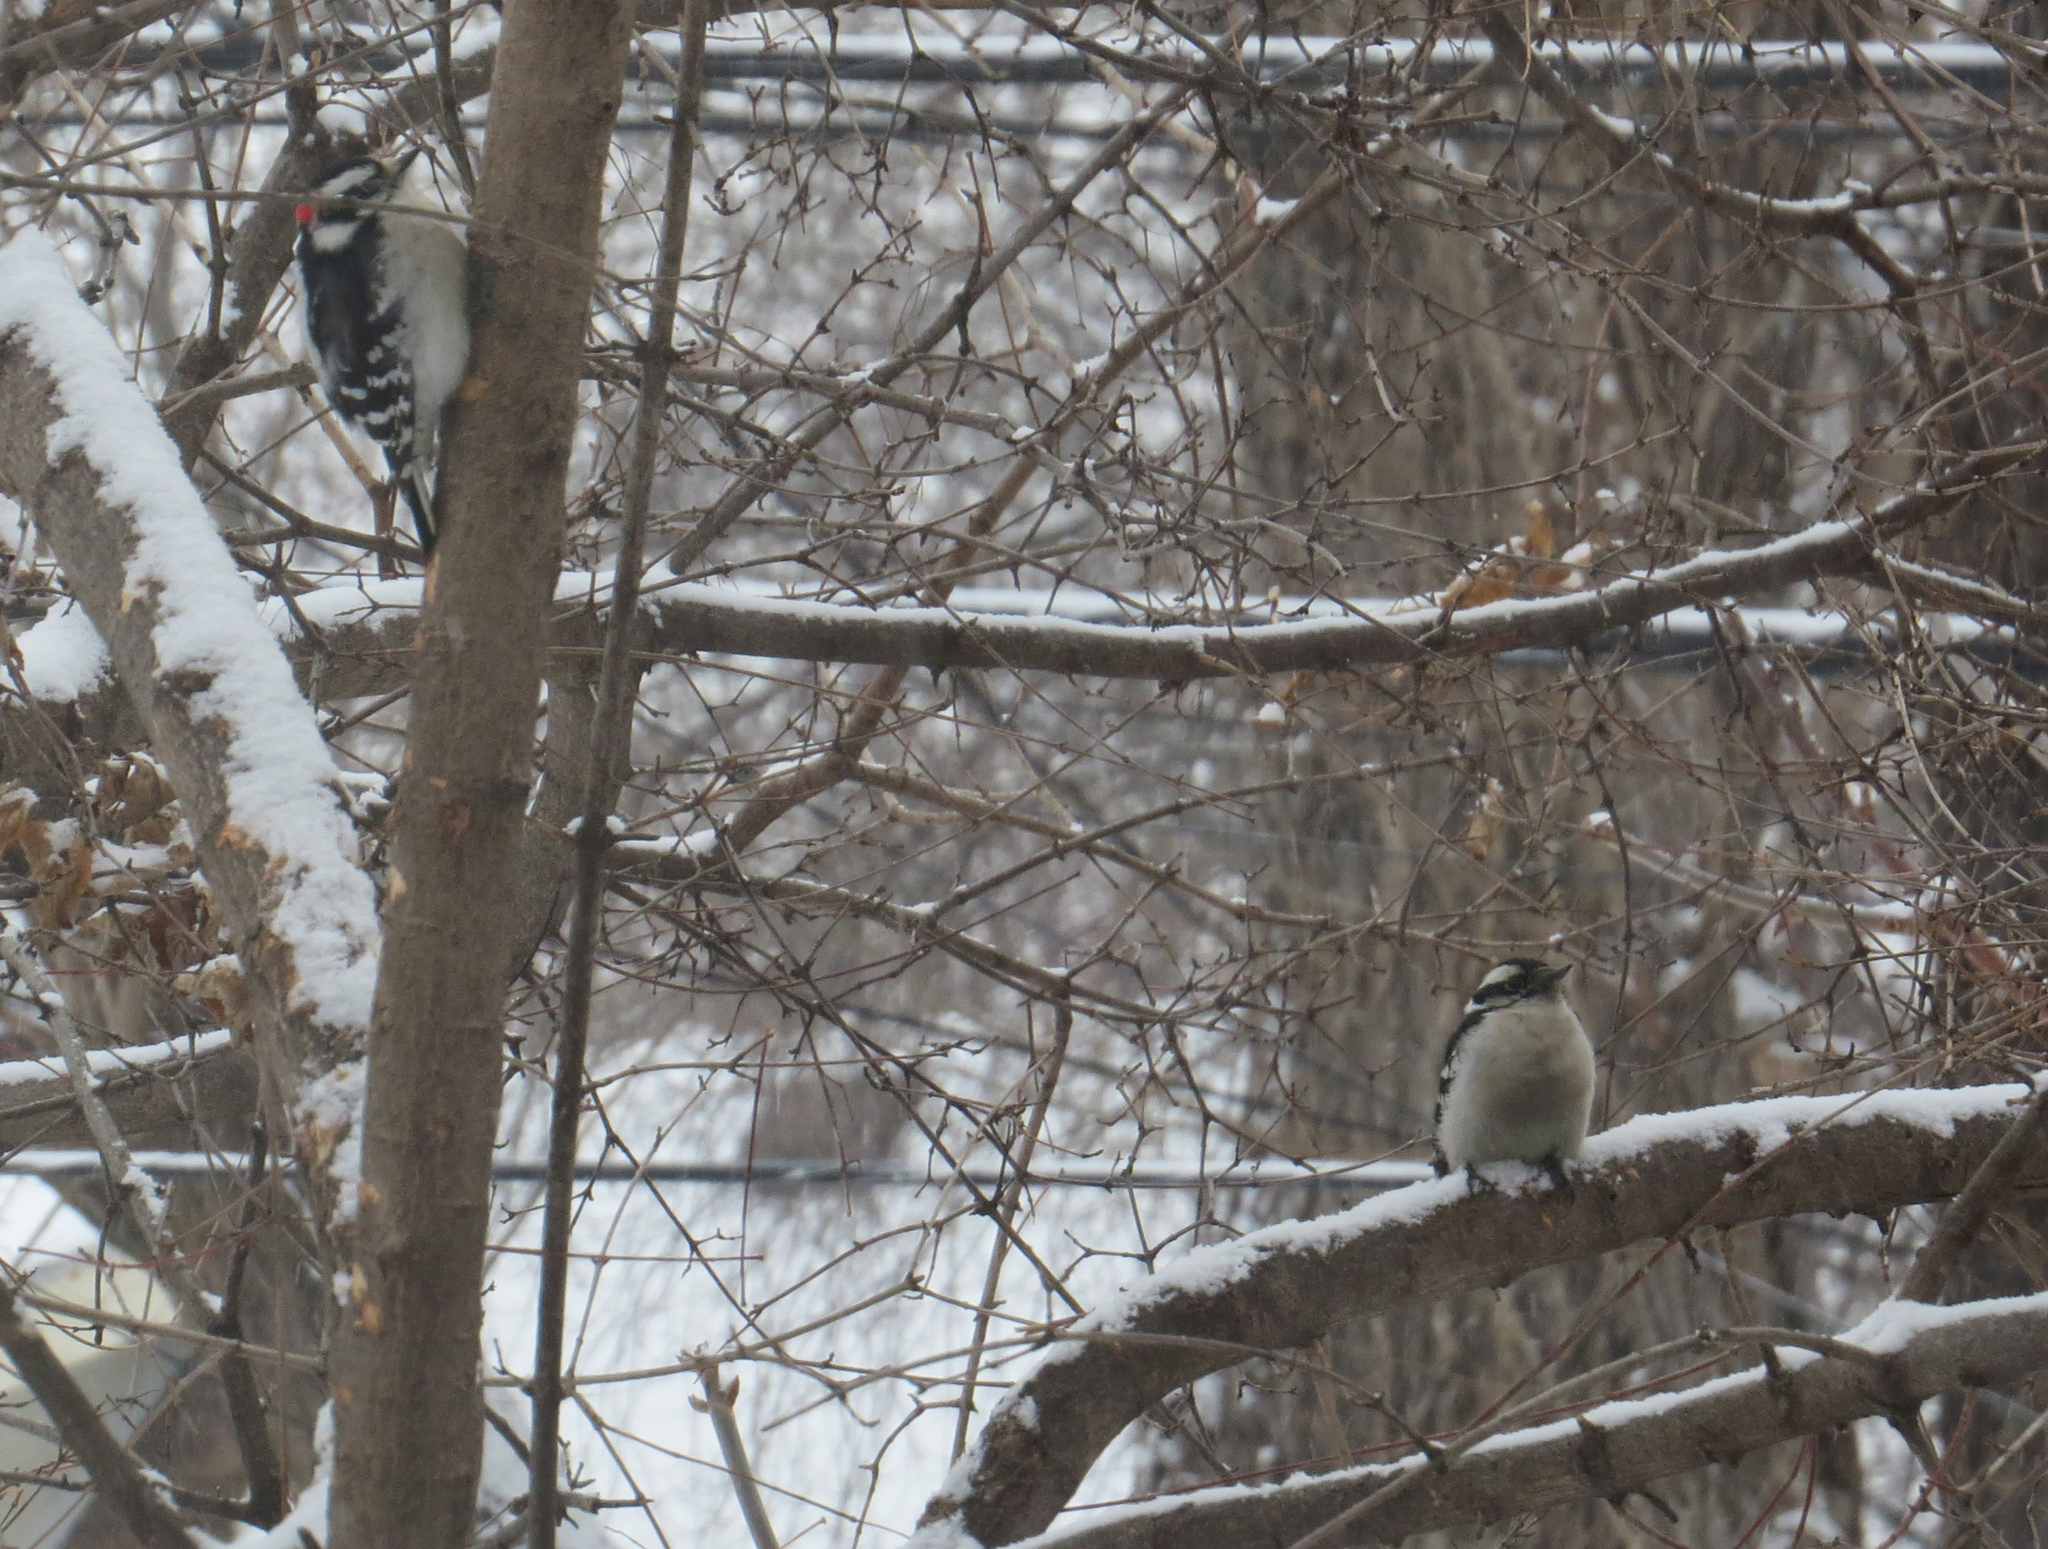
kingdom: Animalia
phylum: Chordata
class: Aves
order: Piciformes
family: Picidae
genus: Dryobates
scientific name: Dryobates pubescens
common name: Downy woodpecker
